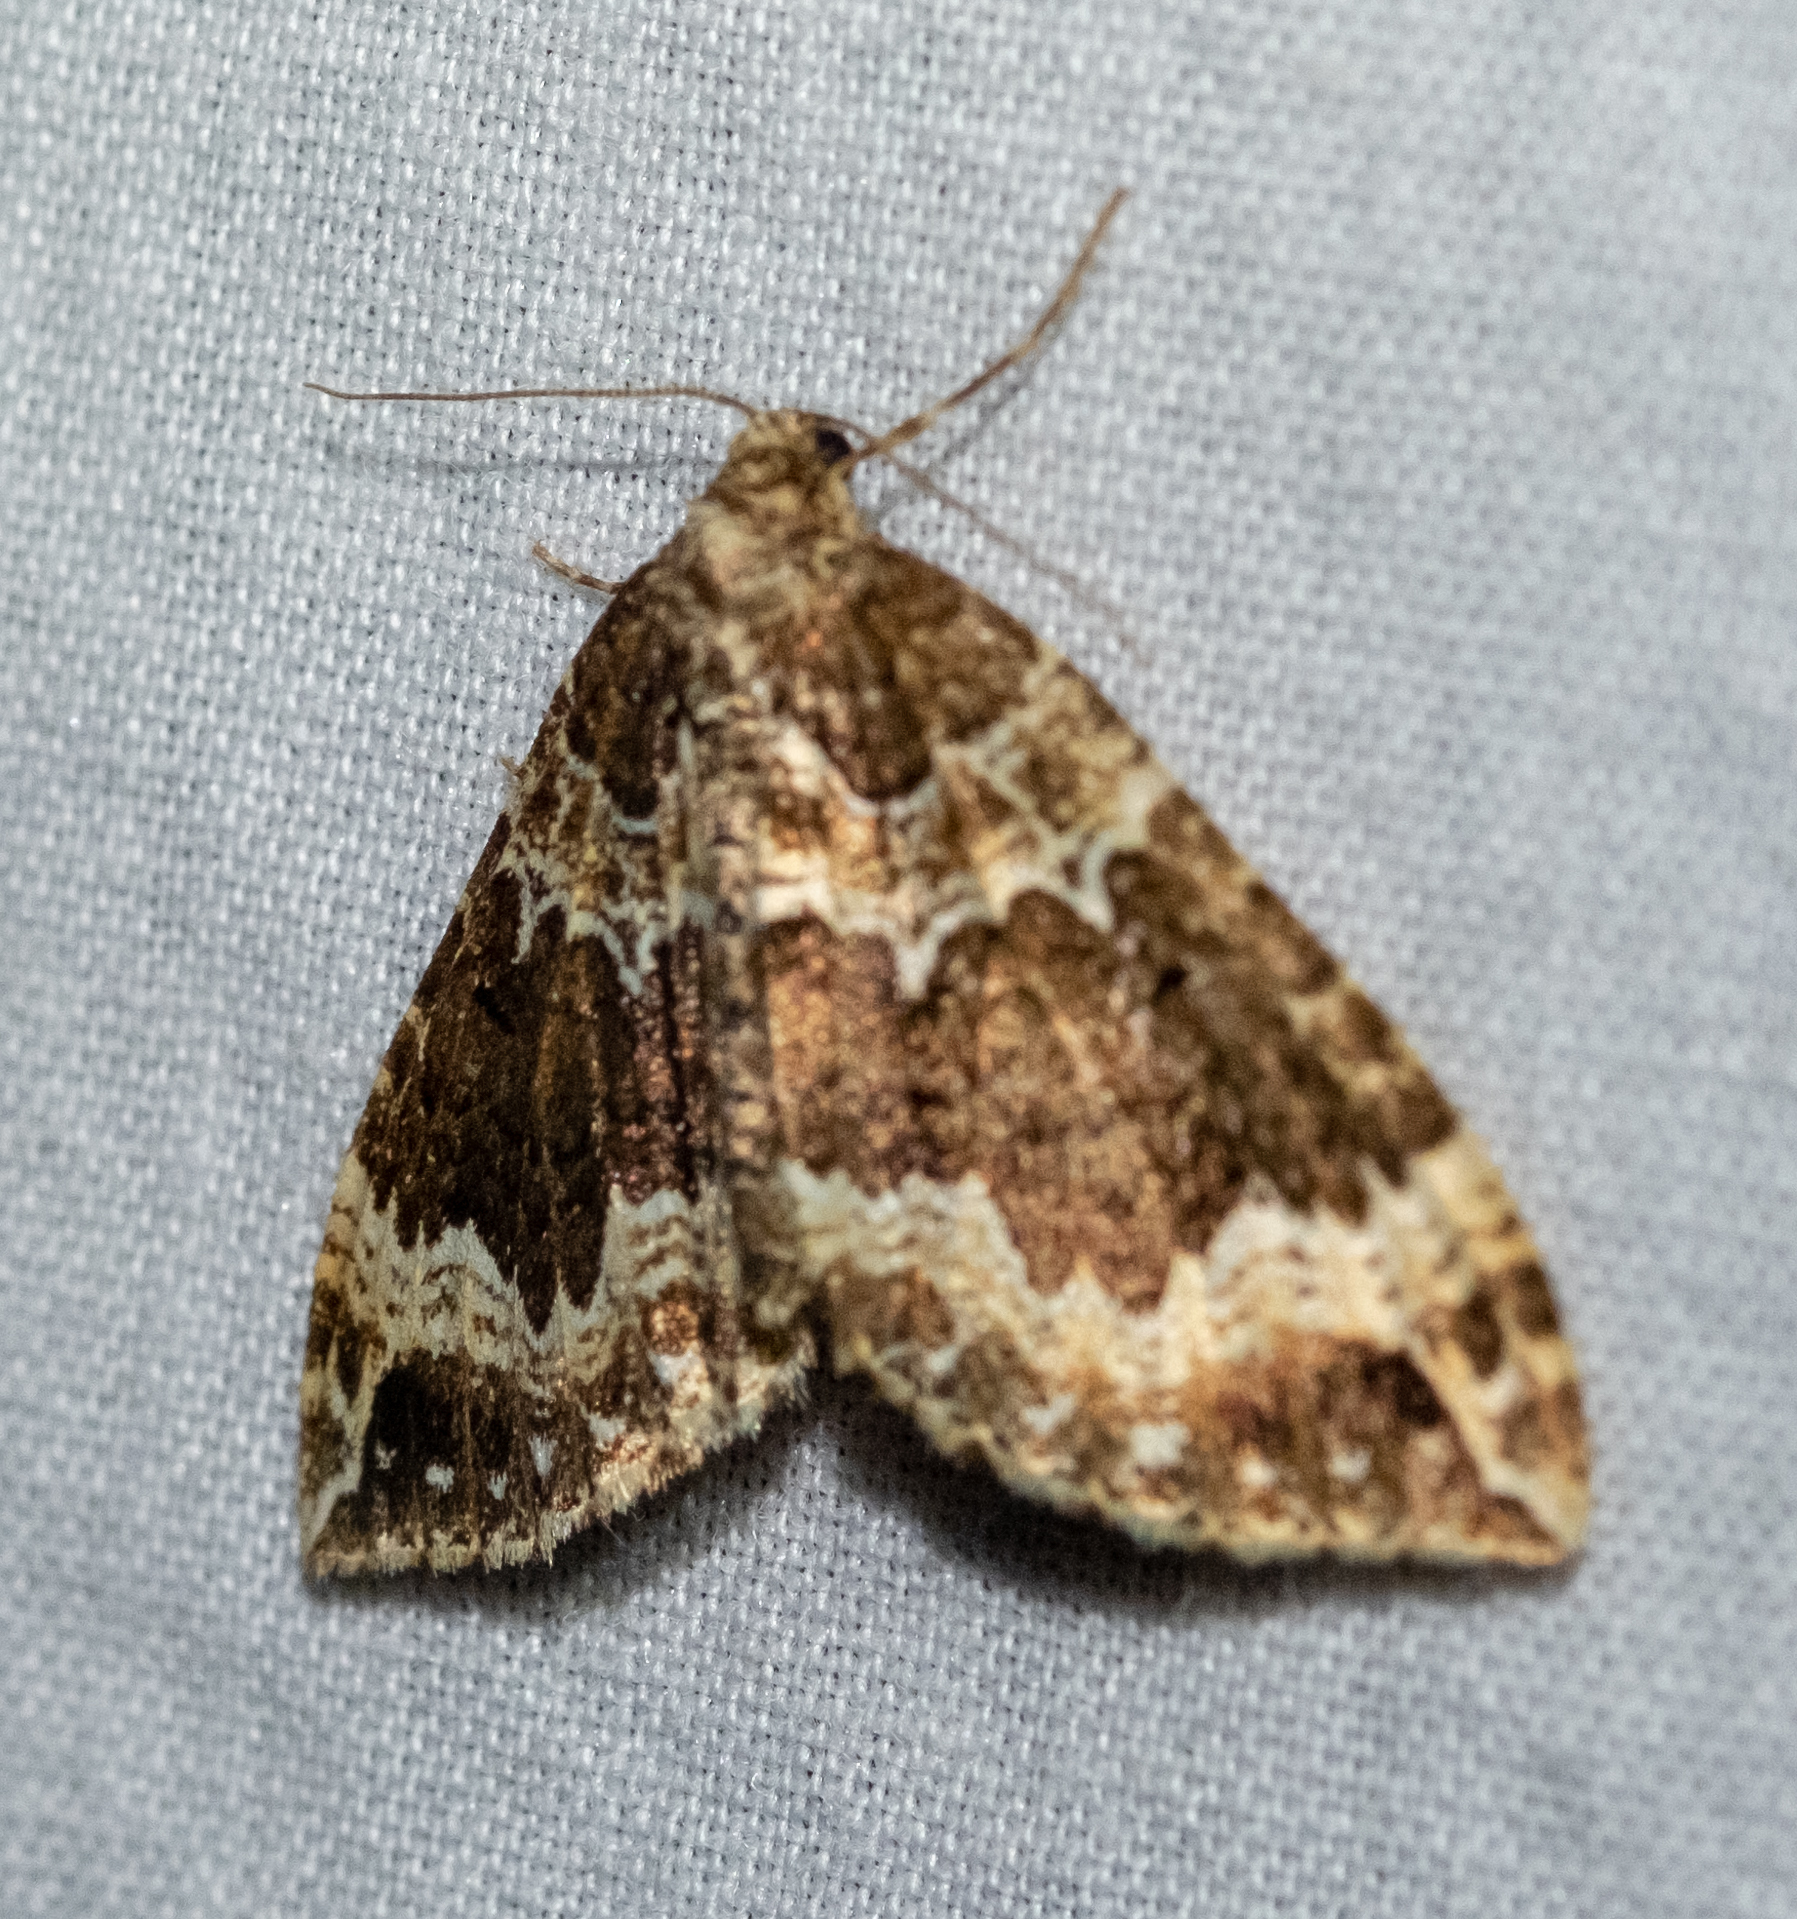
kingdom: Animalia
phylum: Arthropoda
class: Insecta
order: Lepidoptera
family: Geometridae
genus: Lampropteryx
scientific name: Lampropteryx suffumata
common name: Water carpet
